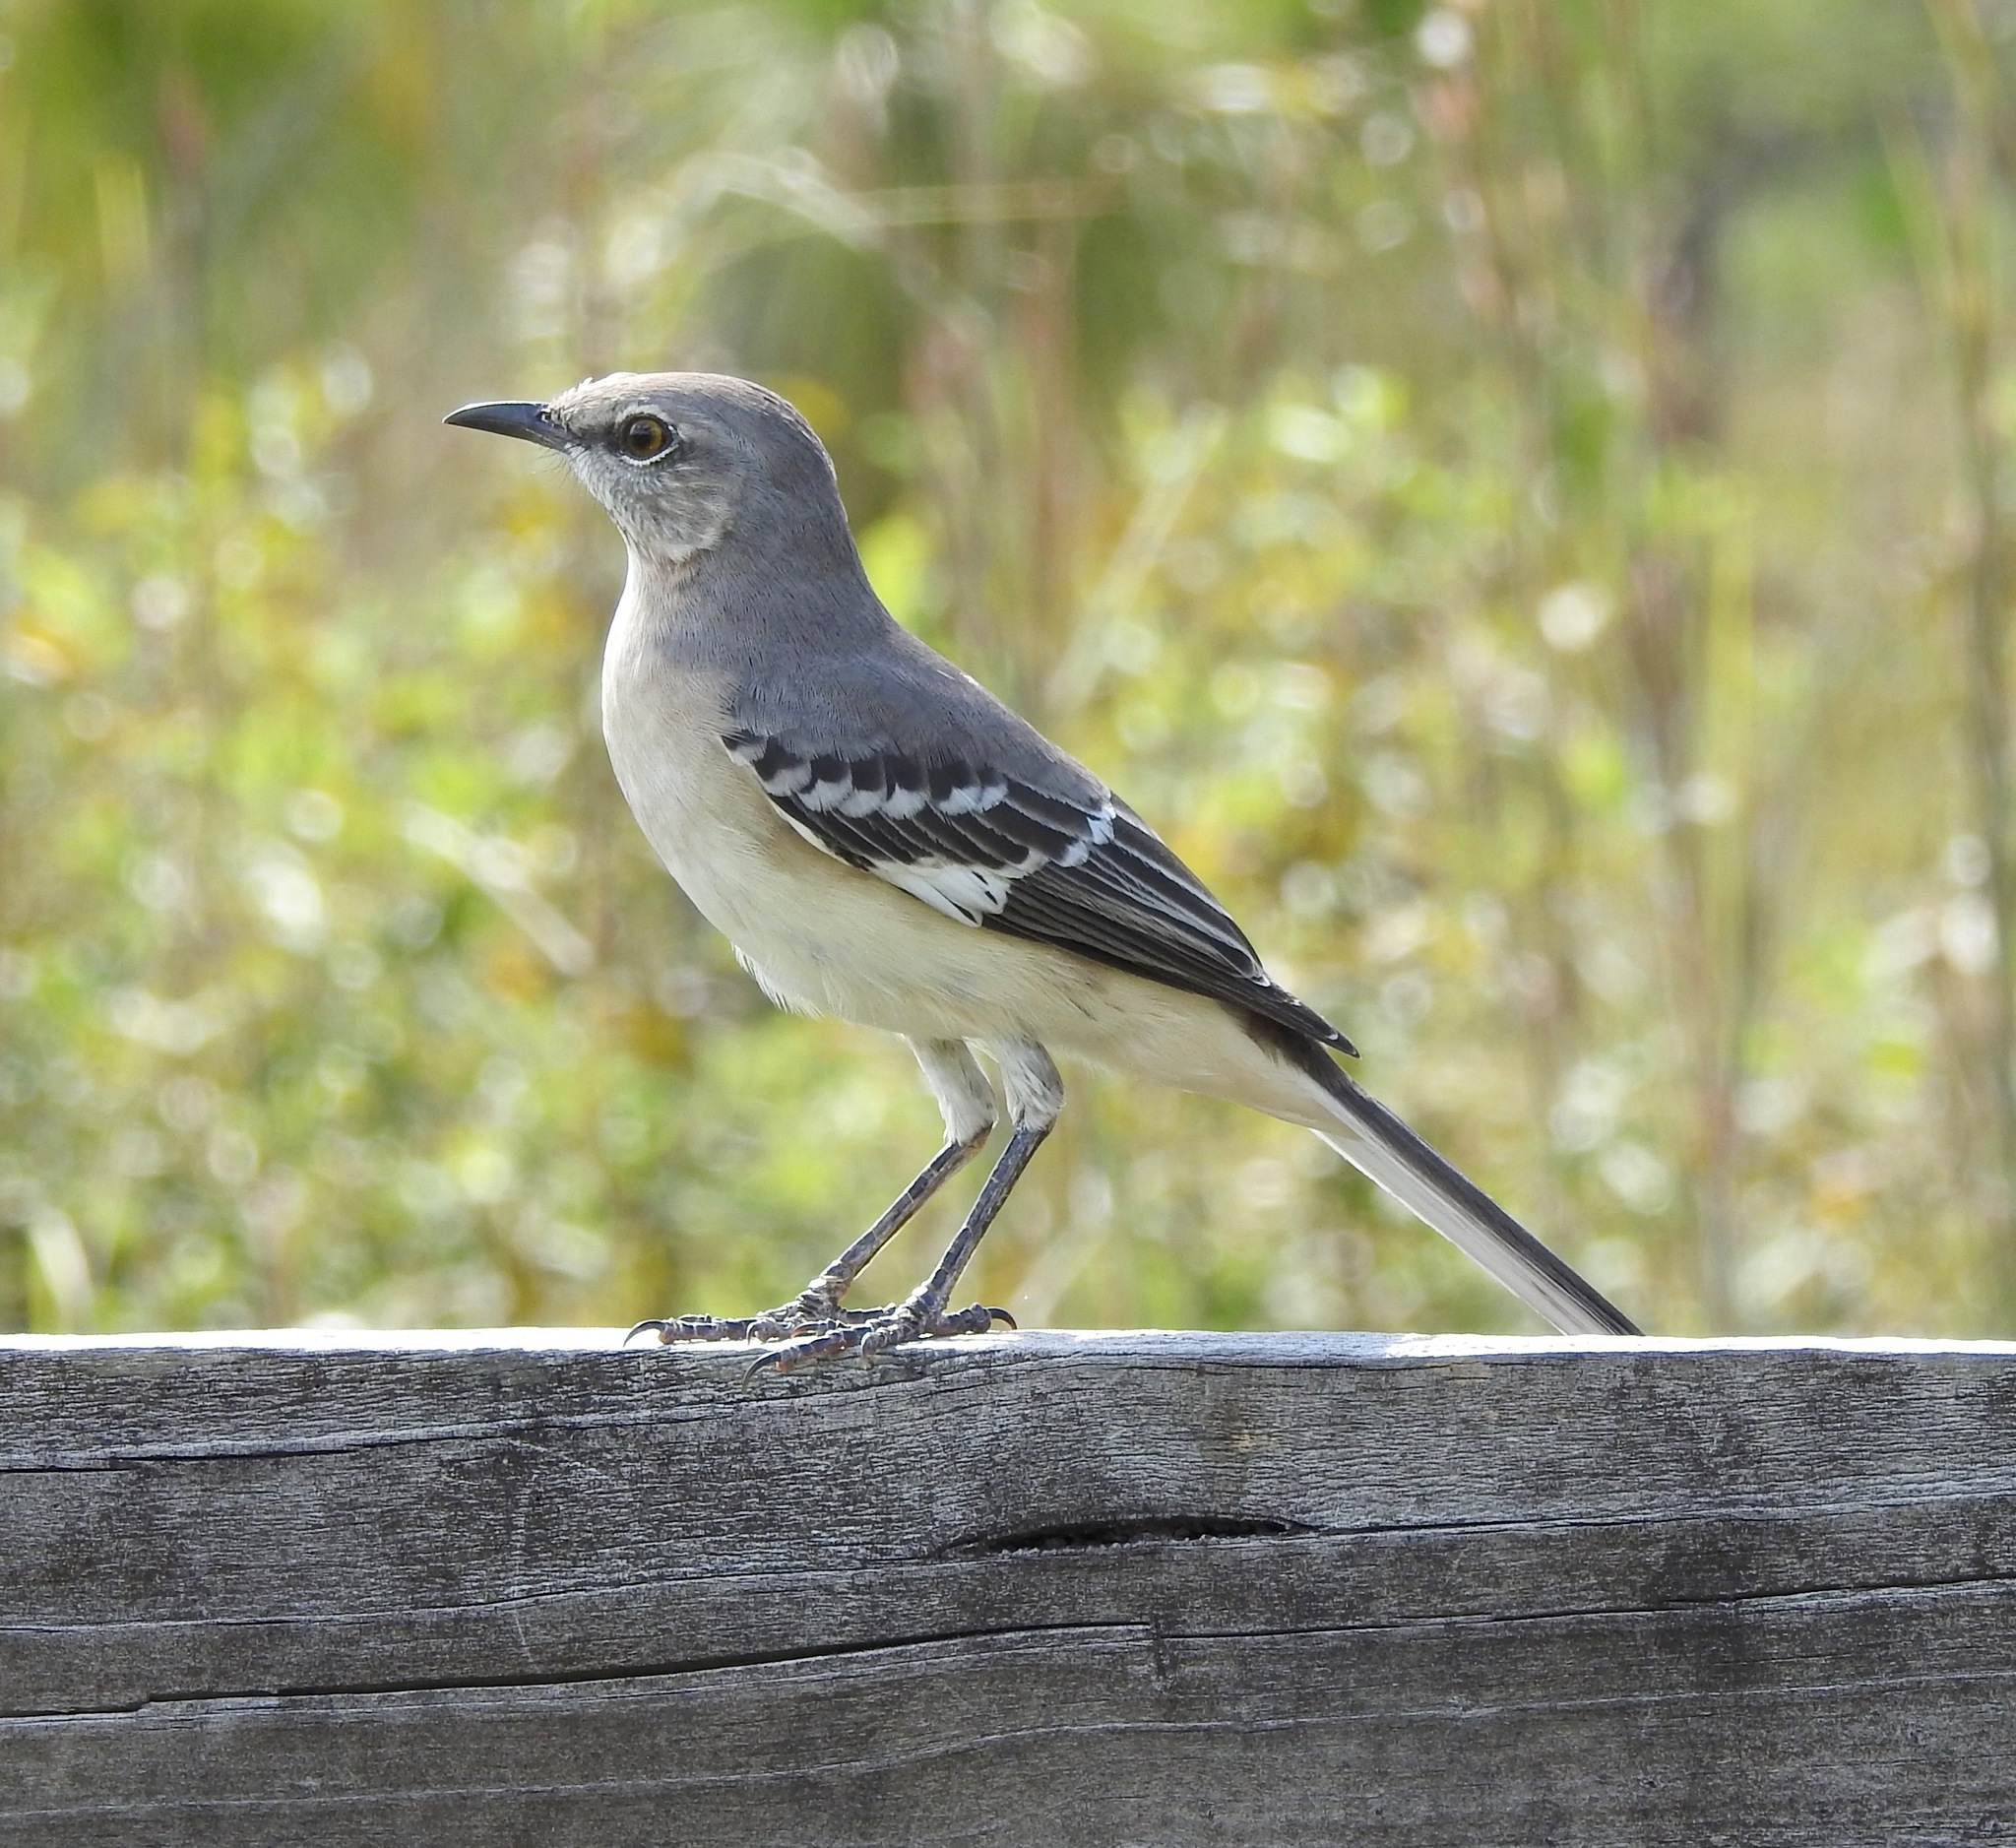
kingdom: Animalia
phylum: Chordata
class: Aves
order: Passeriformes
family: Mimidae
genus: Mimus
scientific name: Mimus polyglottos
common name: Northern mockingbird
